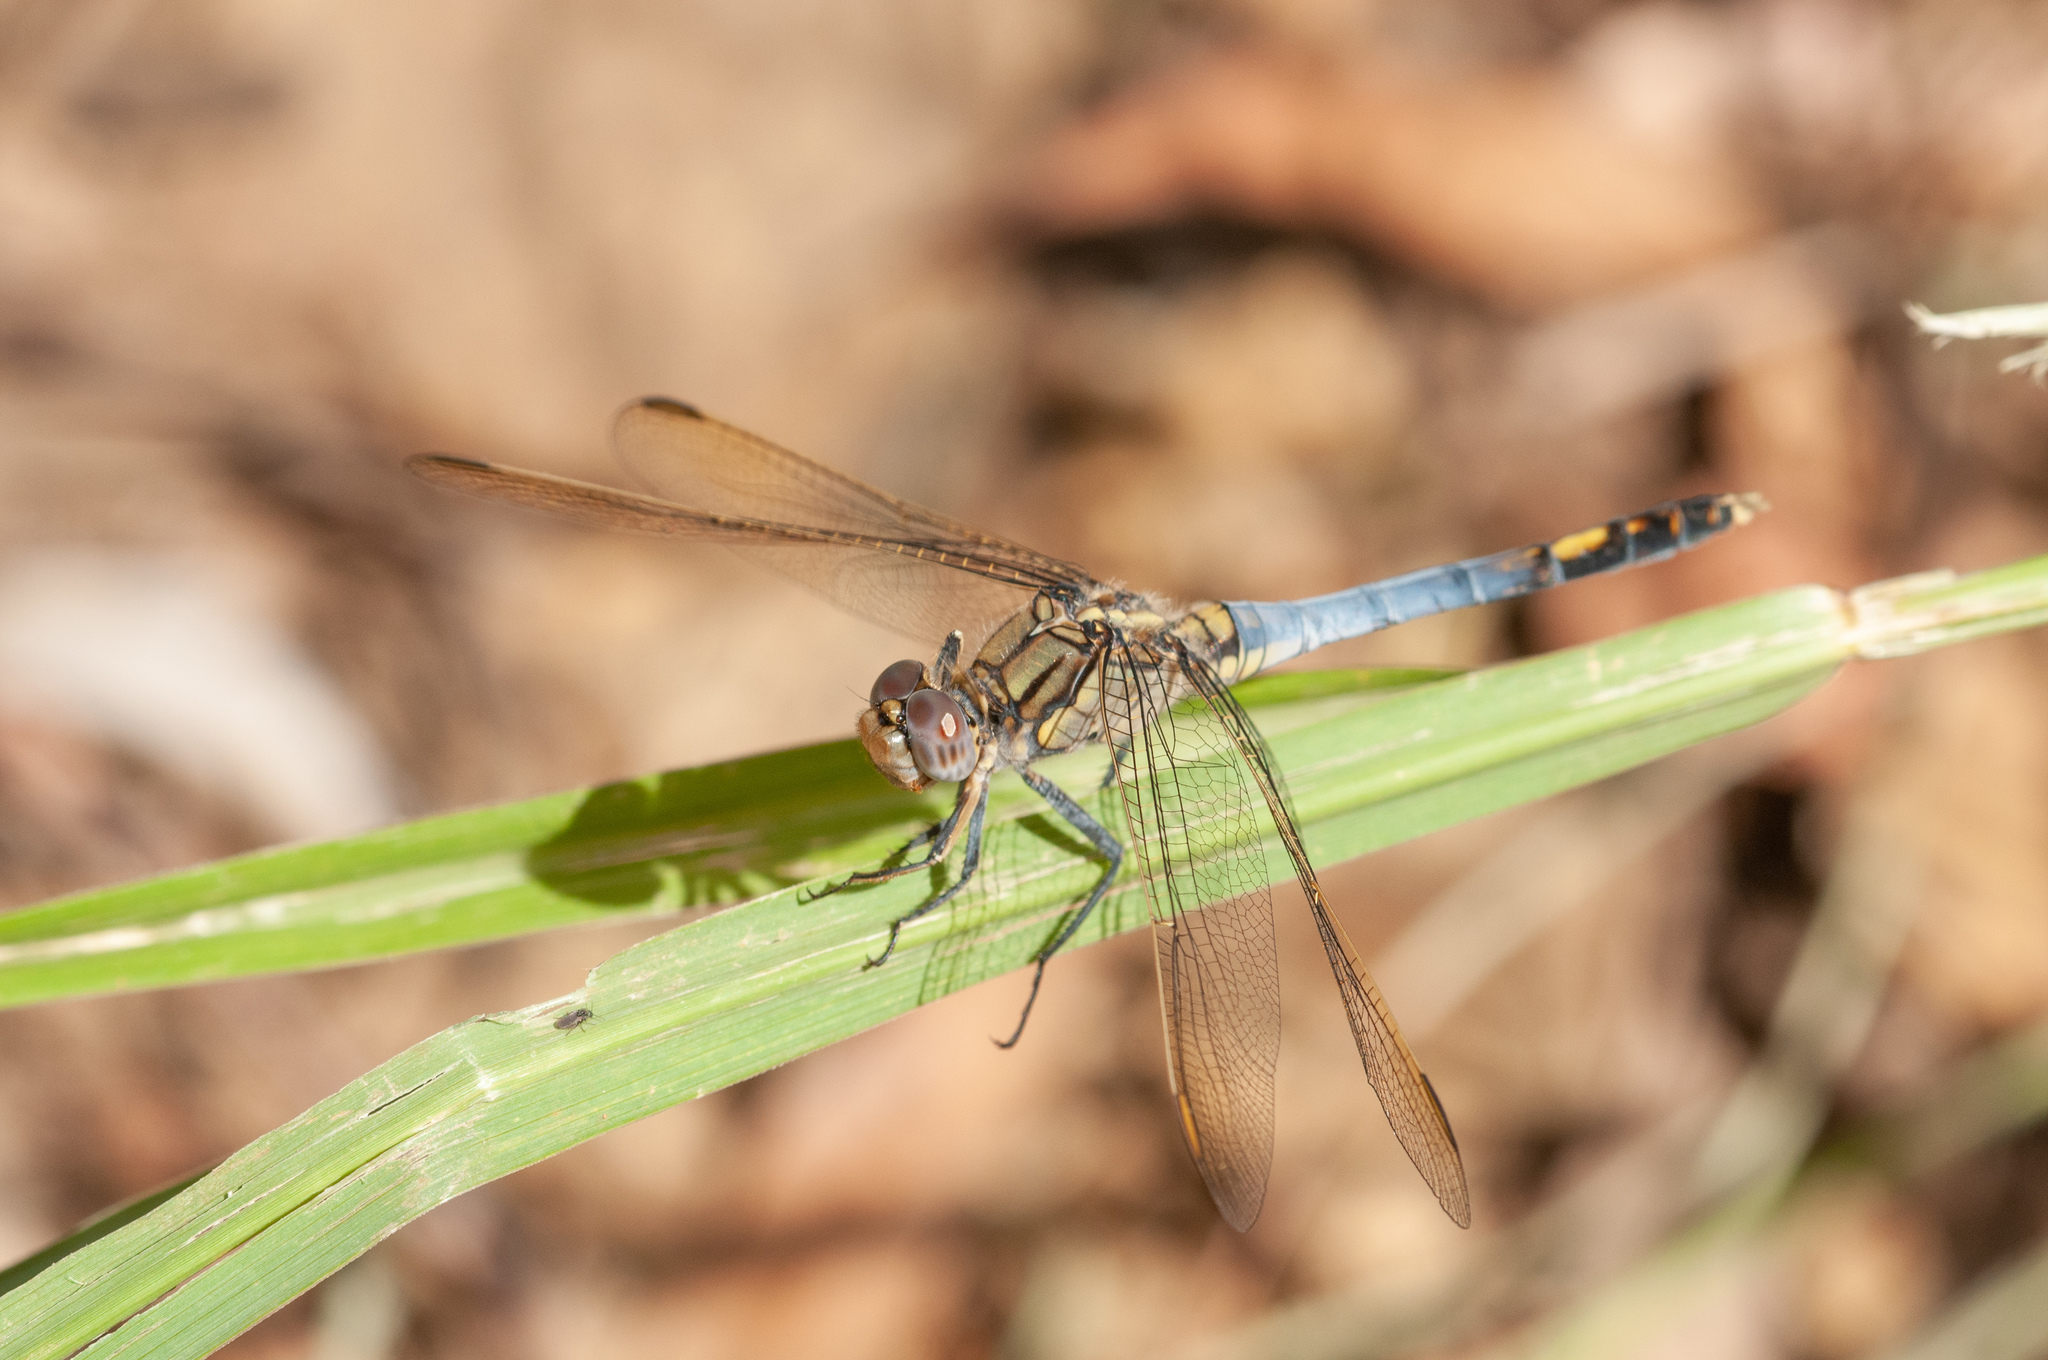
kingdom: Animalia
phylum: Arthropoda
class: Insecta
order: Odonata
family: Libellulidae
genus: Orthetrum
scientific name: Orthetrum caledonicum
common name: Blue skimmer
